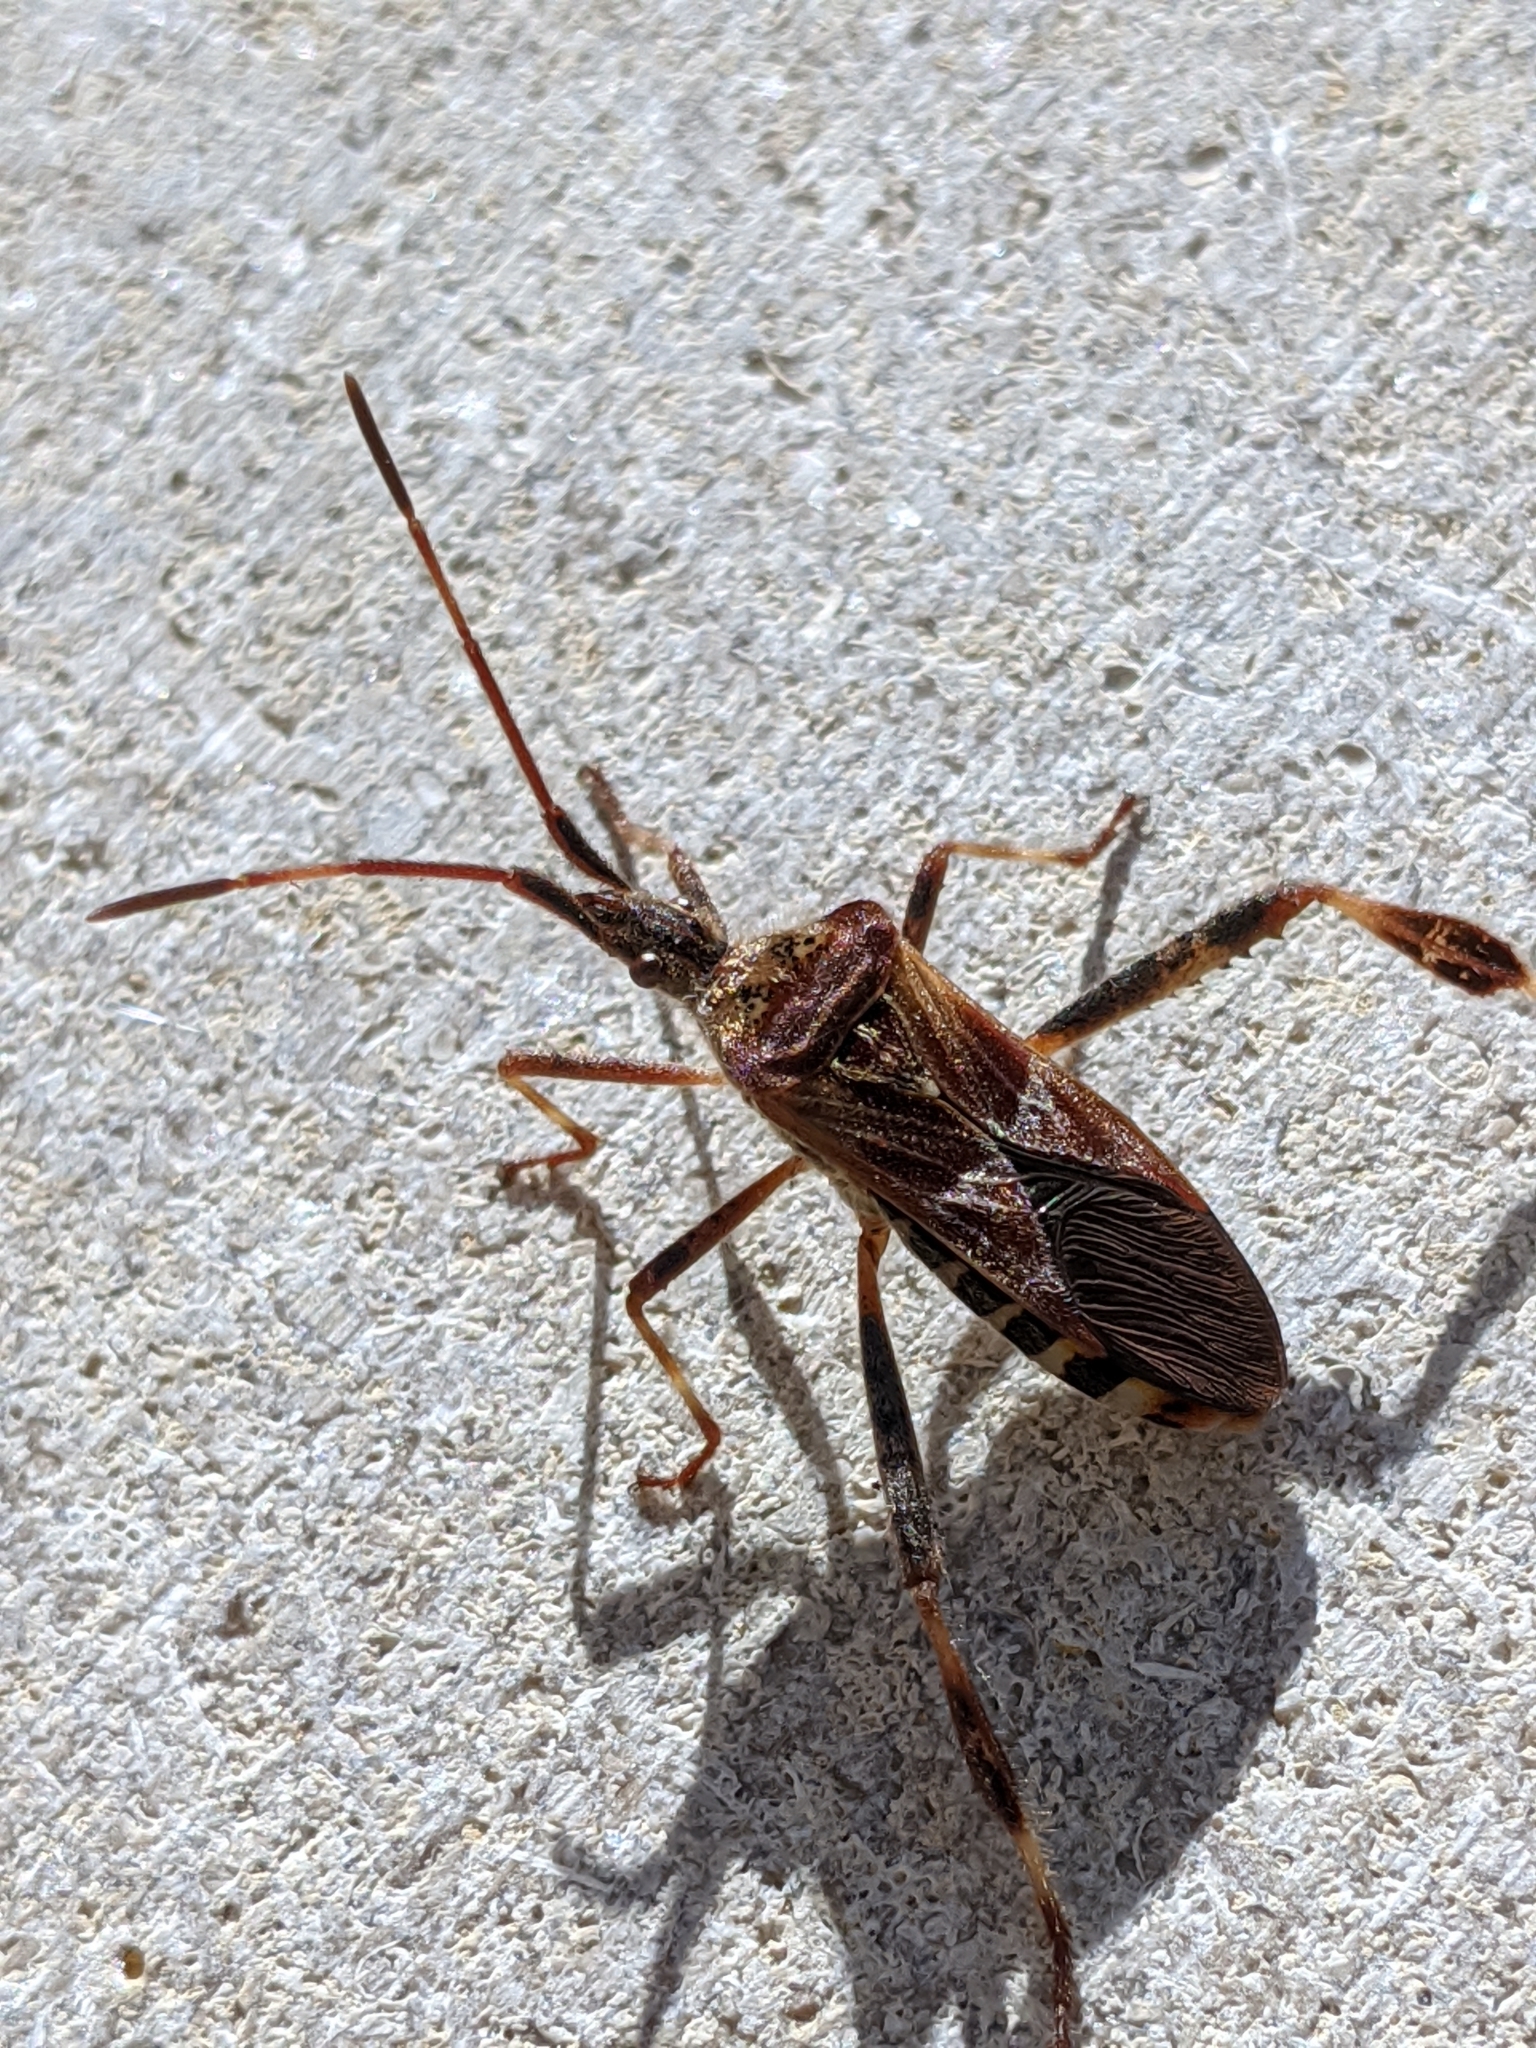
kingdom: Animalia
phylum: Arthropoda
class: Insecta
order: Hemiptera
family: Coreidae
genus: Leptoglossus
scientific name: Leptoglossus occidentalis
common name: Western conifer-seed bug
